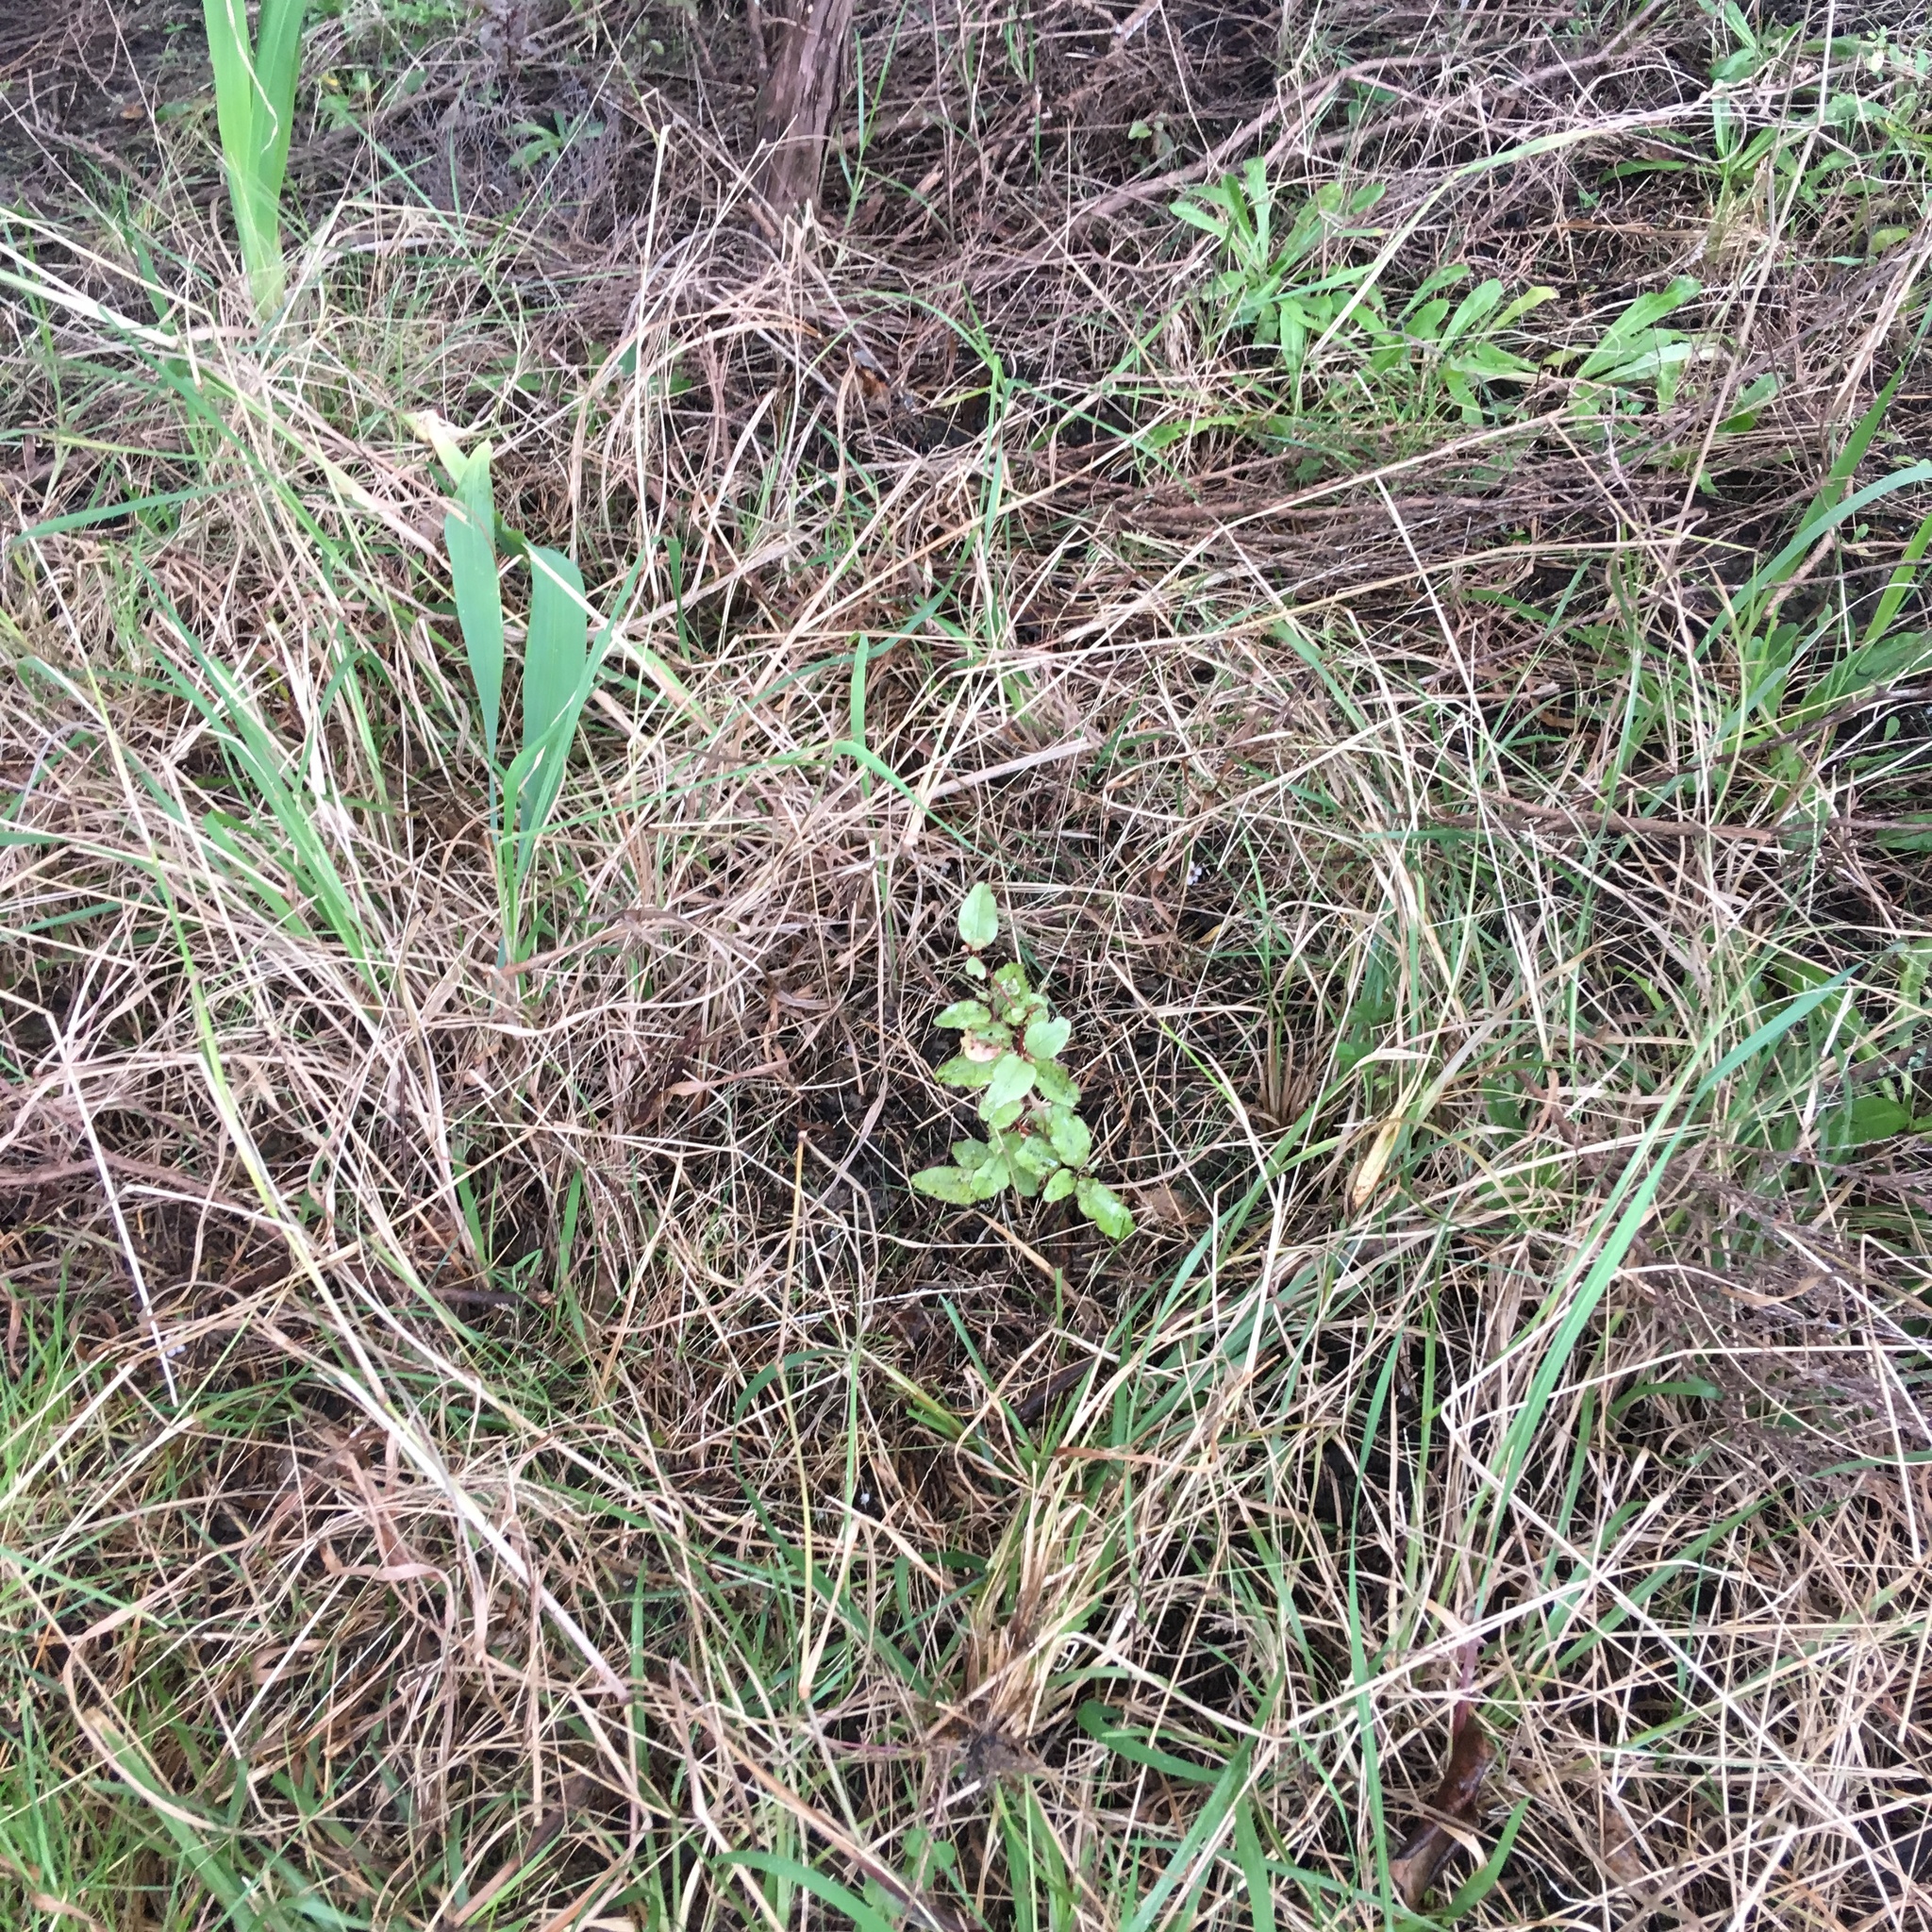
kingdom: Plantae
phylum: Tracheophyta
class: Magnoliopsida
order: Ericales
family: Primulaceae
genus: Myrsine
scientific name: Myrsine australis
